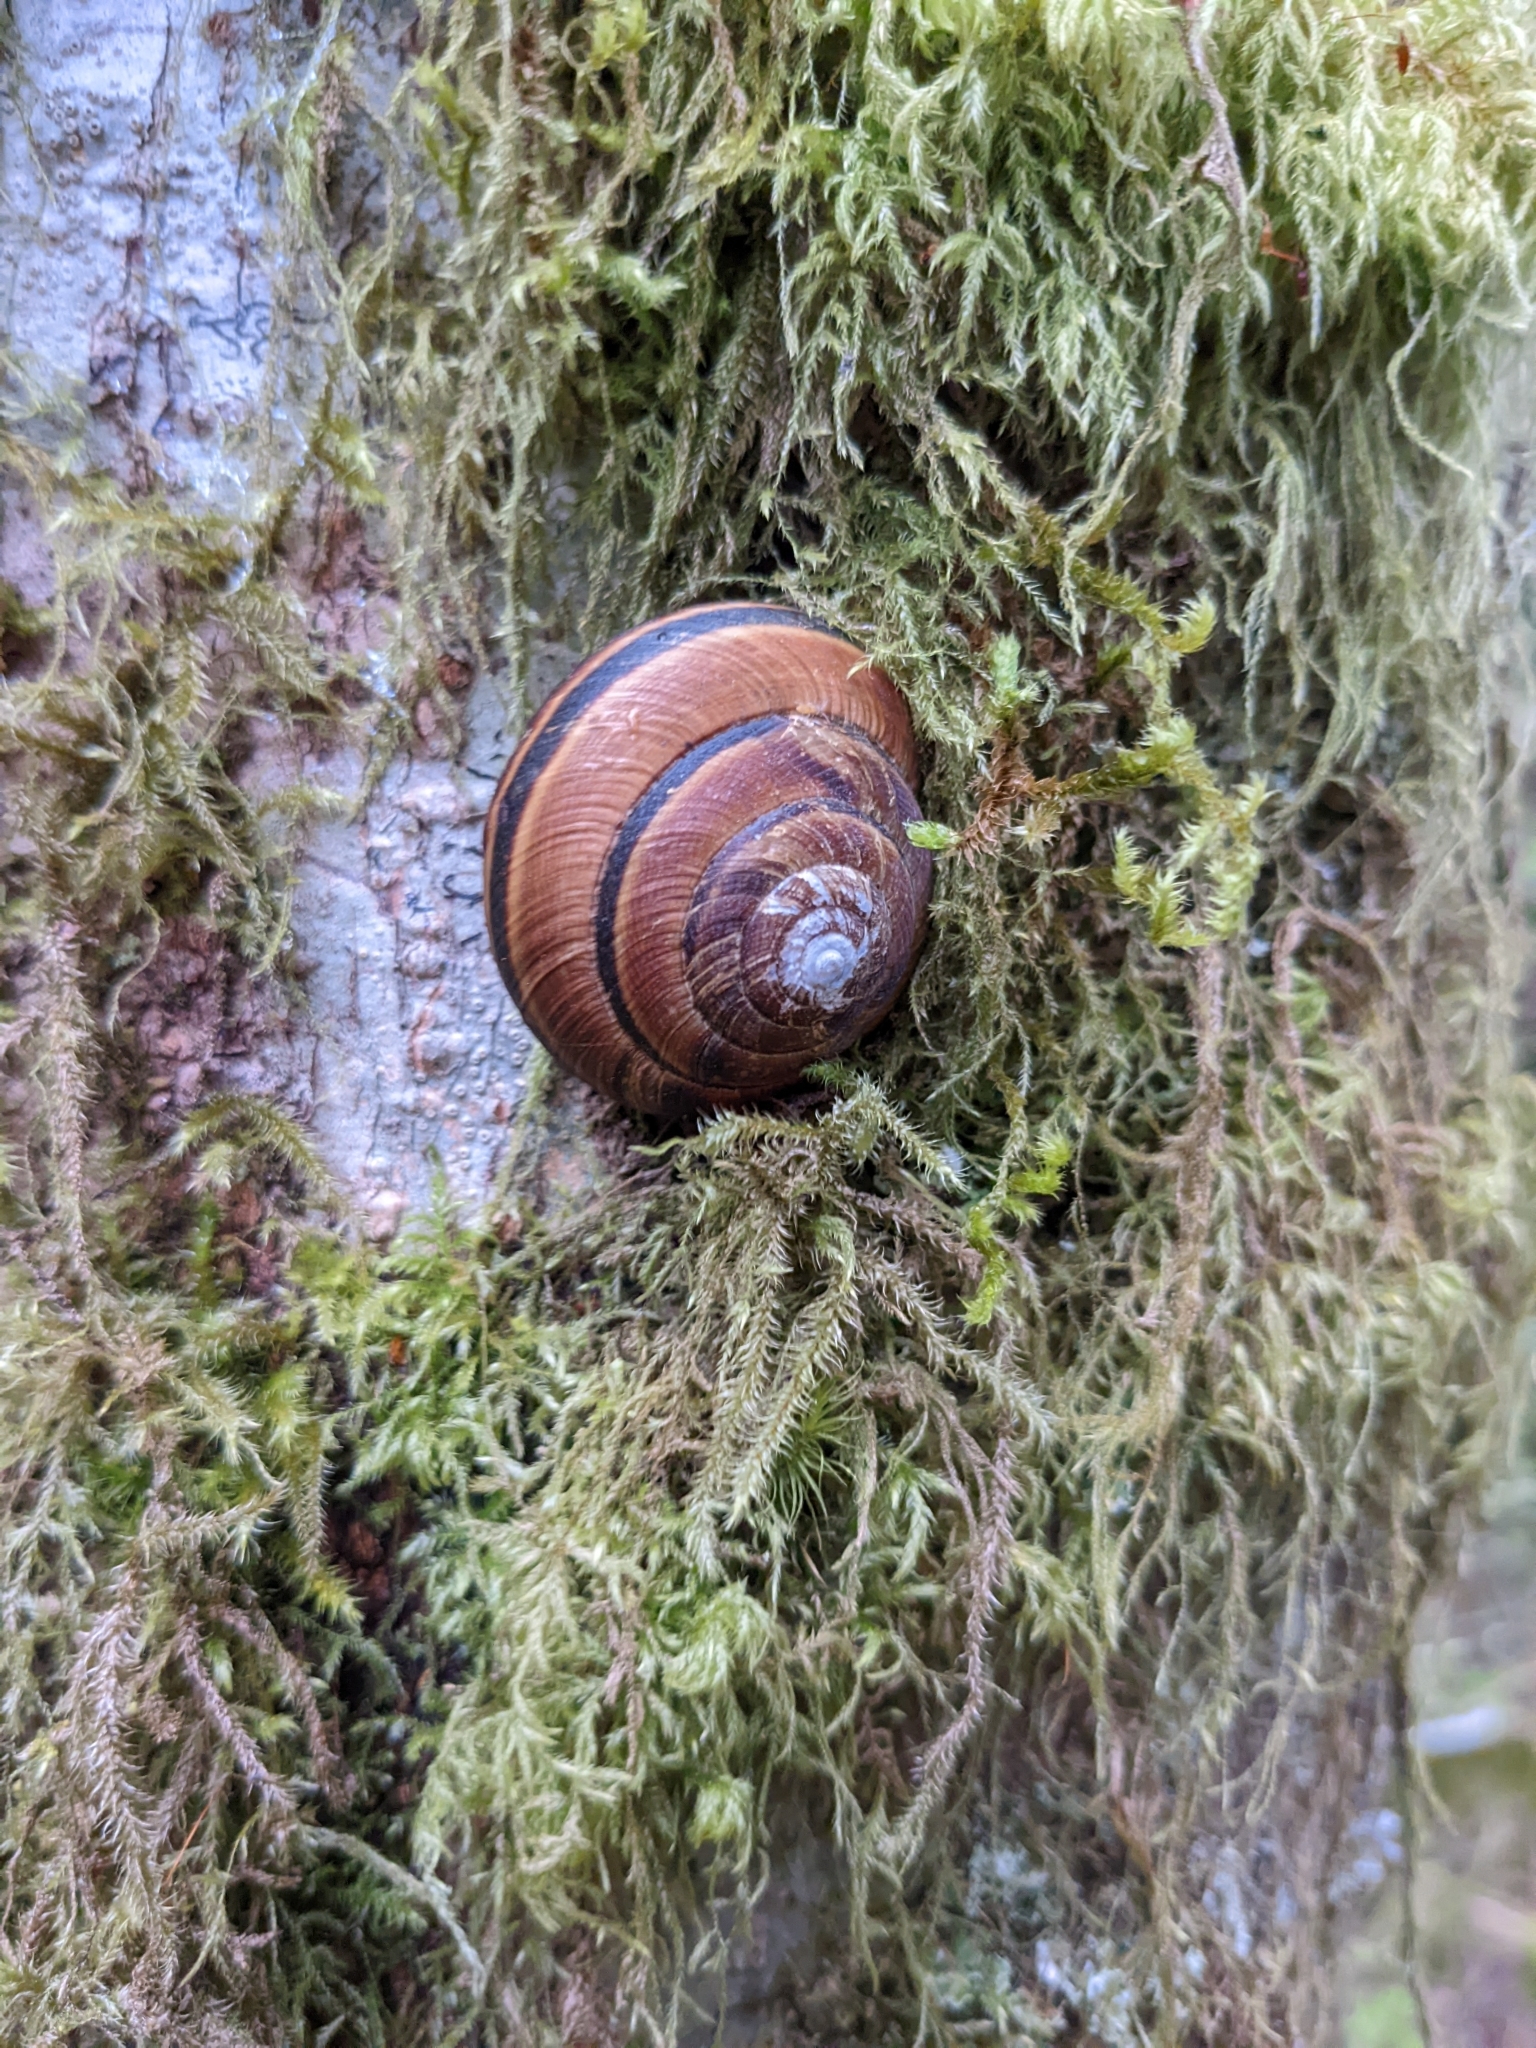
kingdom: Animalia
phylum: Mollusca
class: Gastropoda
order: Stylommatophora
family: Xanthonychidae
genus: Monadenia
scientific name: Monadenia fidelis
